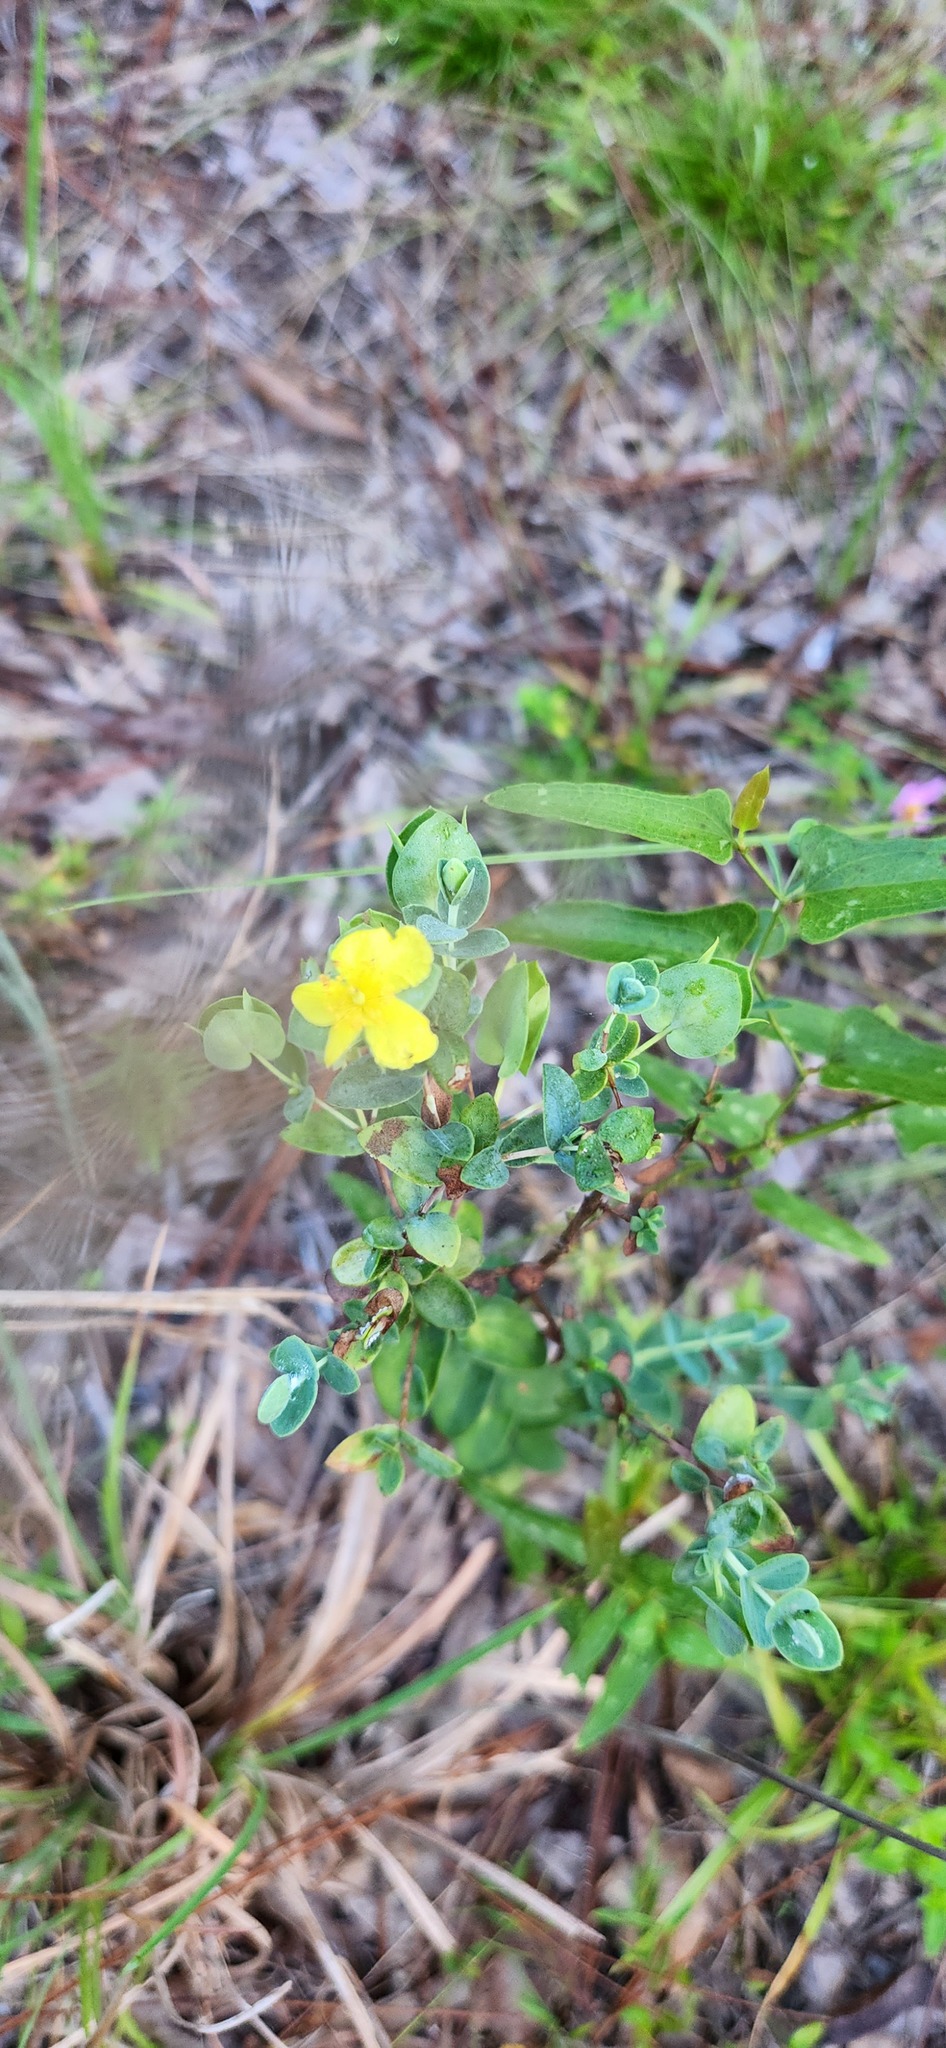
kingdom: Plantae
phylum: Tracheophyta
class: Magnoliopsida
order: Malpighiales
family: Hypericaceae
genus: Hypericum
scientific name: Hypericum tetrapetalum
